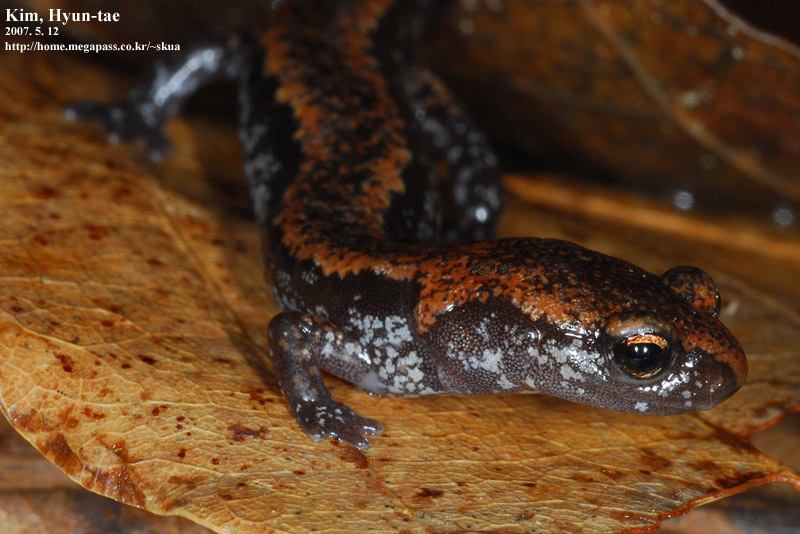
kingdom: Animalia
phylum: Chordata
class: Amphibia
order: Caudata
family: Plethodontidae
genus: Karsenia
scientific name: Karsenia koreana
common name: Korean crevice salamander
